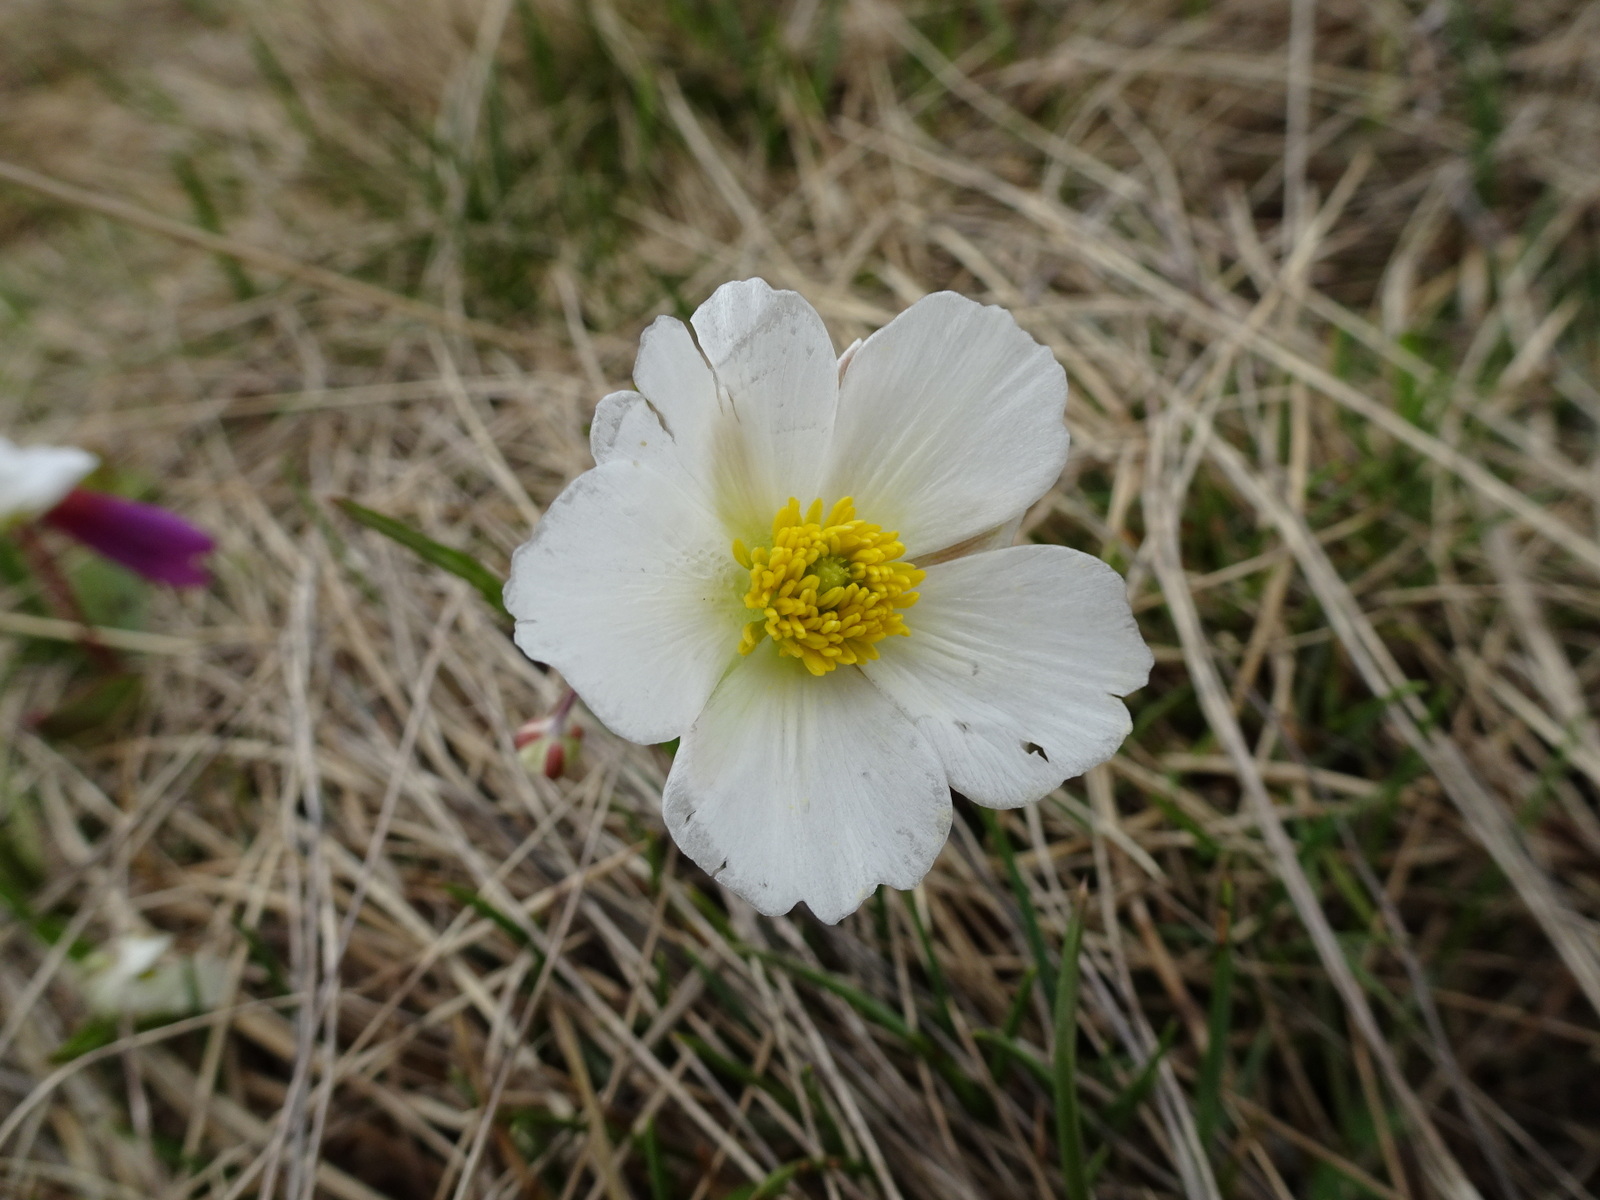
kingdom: Plantae
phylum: Tracheophyta
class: Magnoliopsida
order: Ranunculales
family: Ranunculaceae
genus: Ranunculus
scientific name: Ranunculus pyrenaeus
